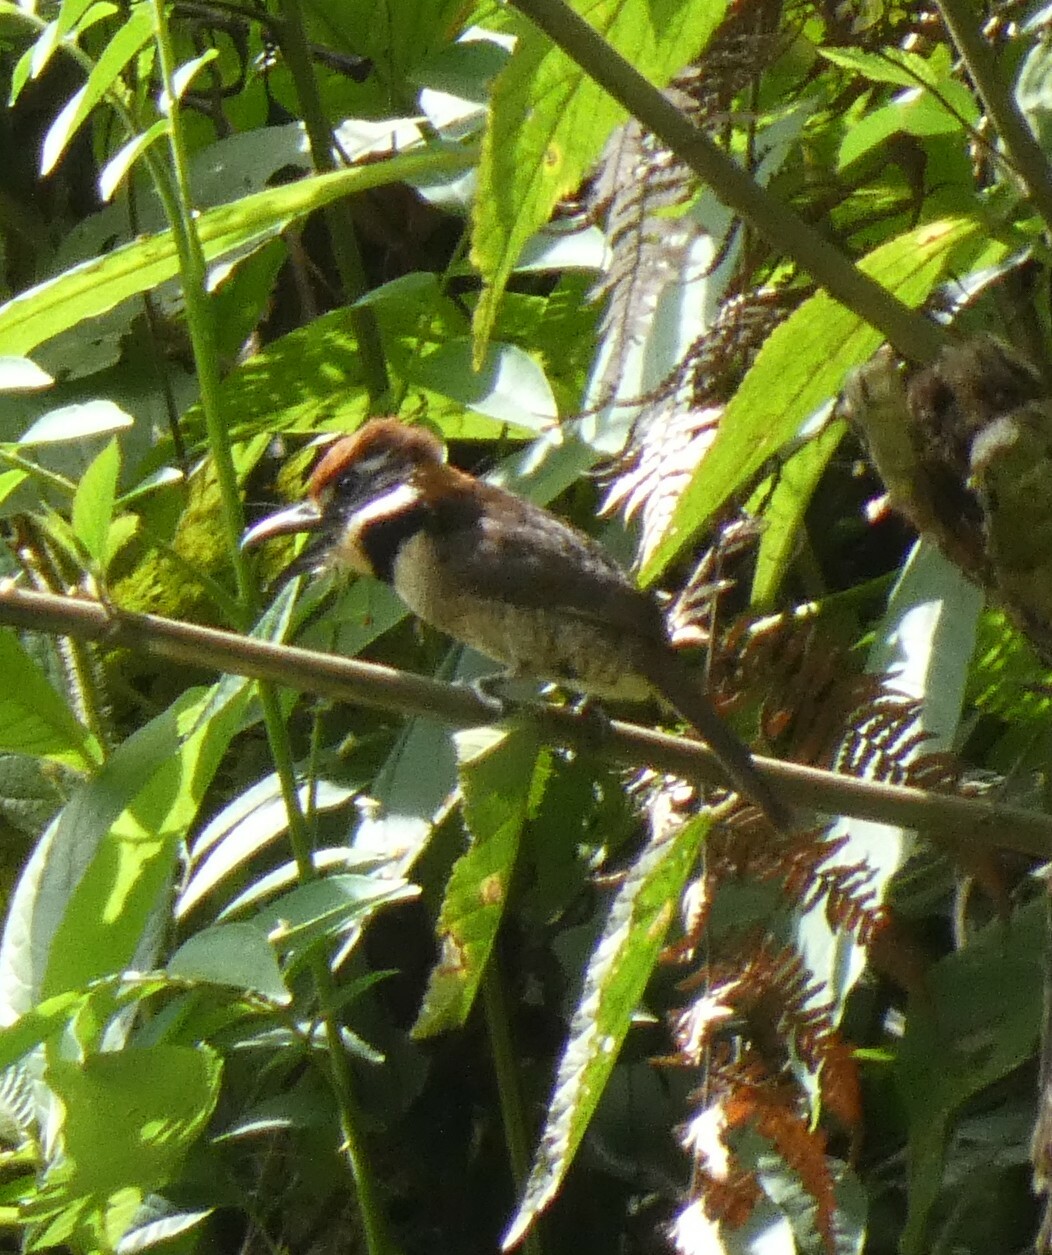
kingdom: Animalia
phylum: Chordata
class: Aves
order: Piciformes
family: Bucconidae
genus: Bucco
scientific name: Bucco macrodactylus
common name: Chestnut-capped puffbird
